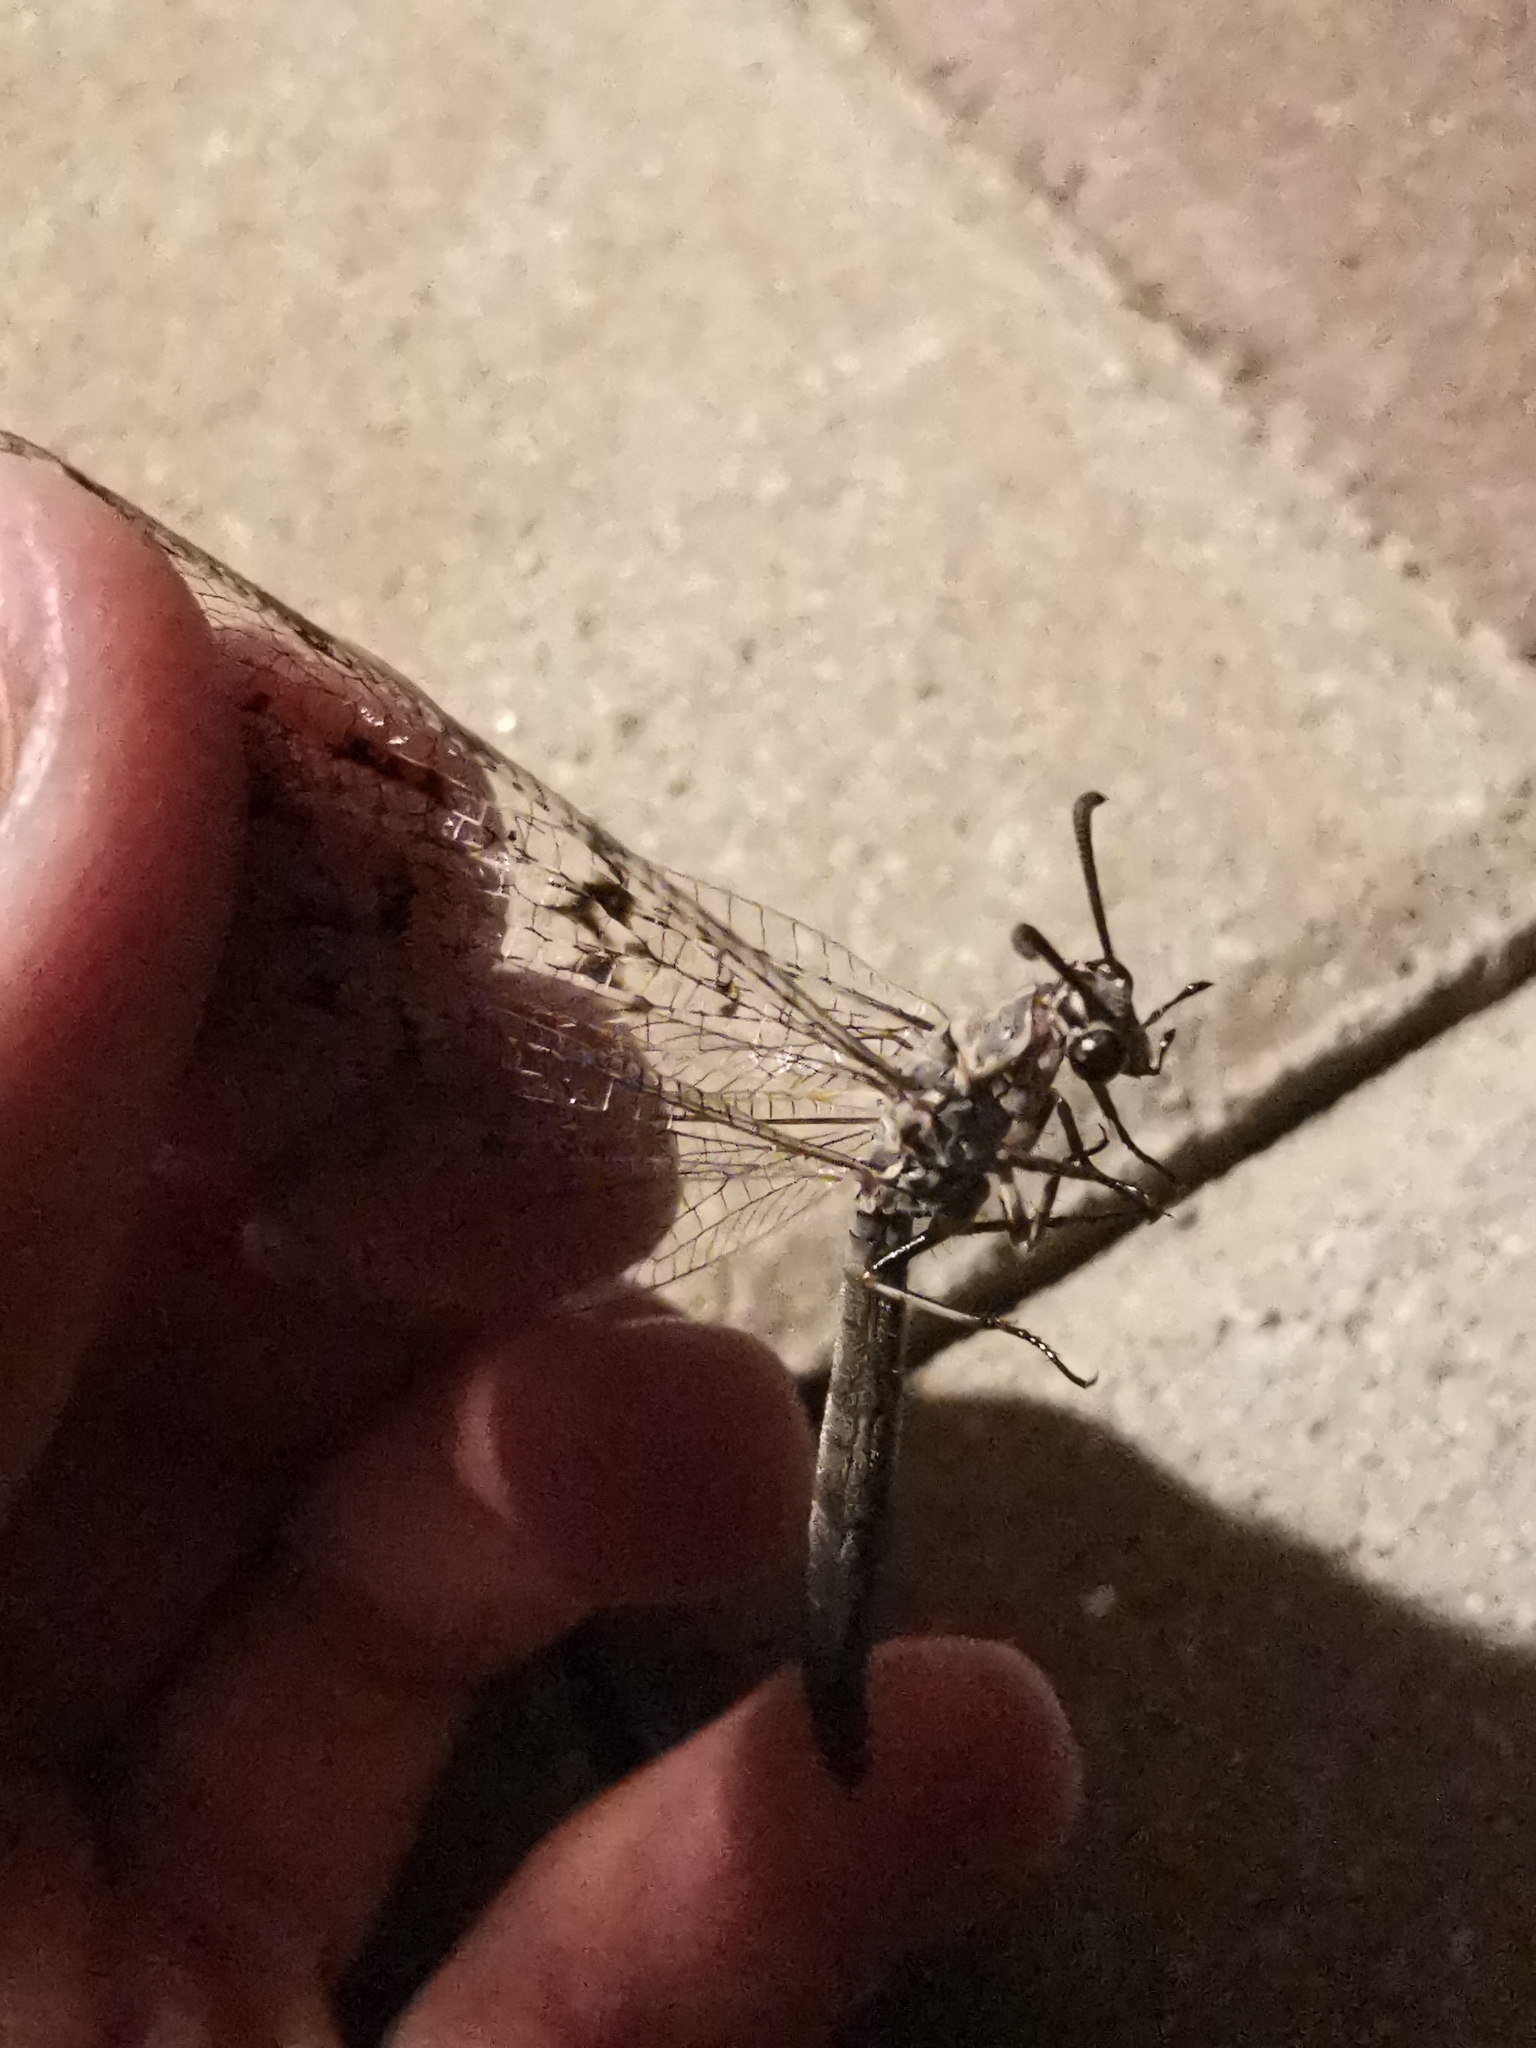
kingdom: Animalia
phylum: Arthropoda
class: Insecta
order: Neuroptera
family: Myrmeleontidae
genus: Euroleon
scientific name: Euroleon nostras
